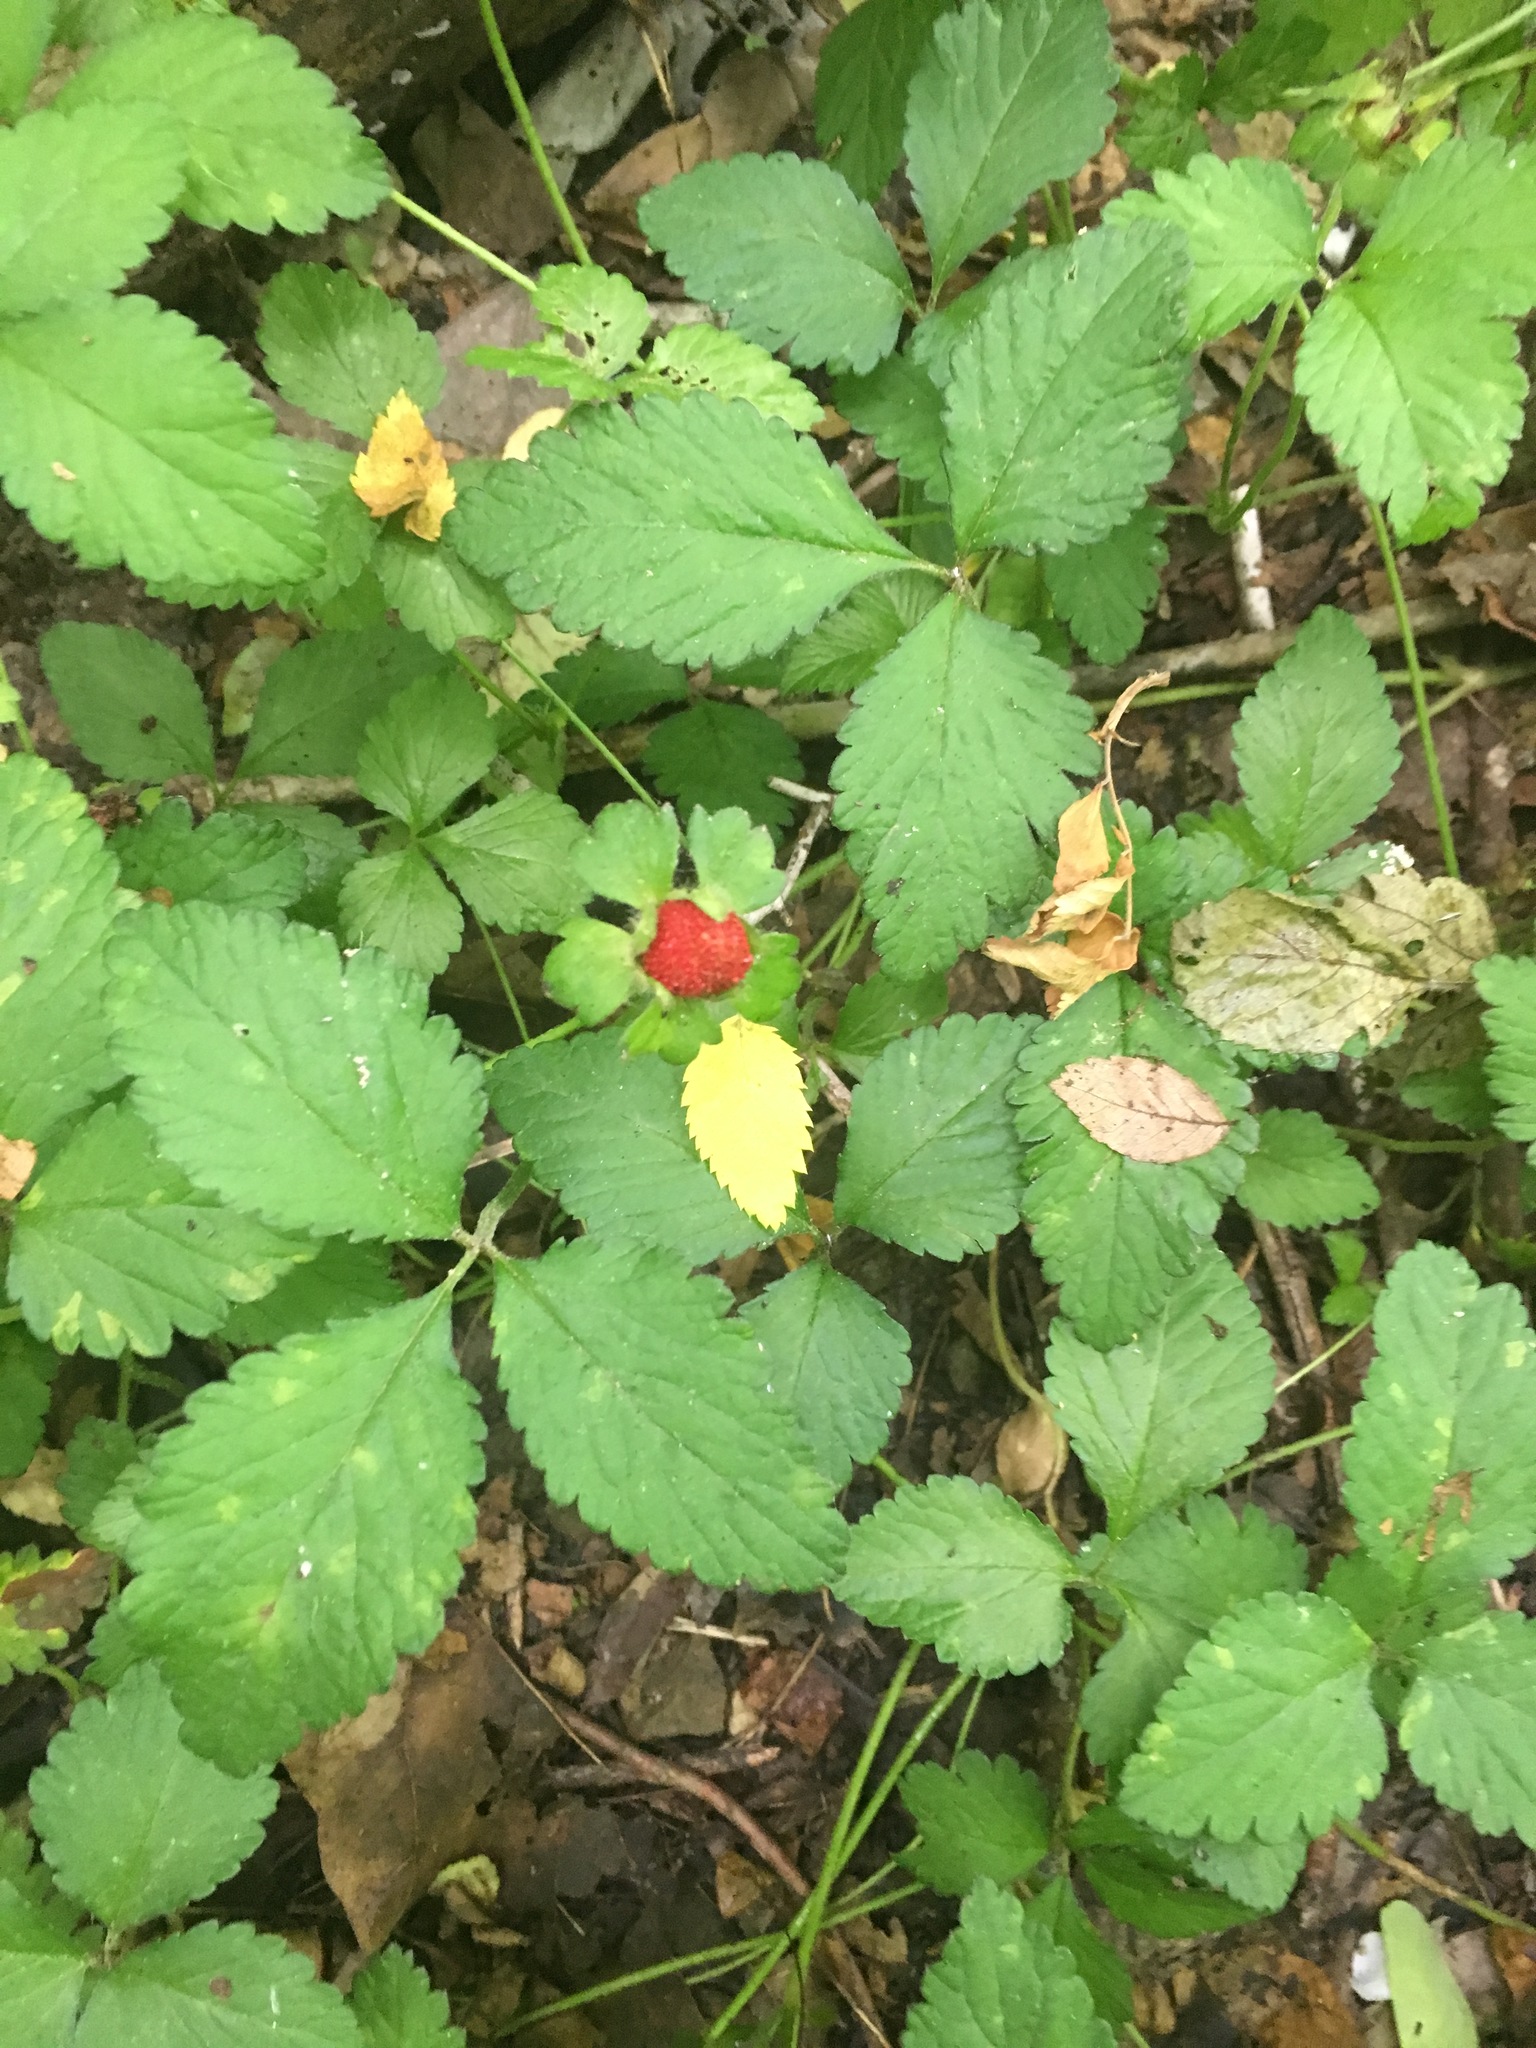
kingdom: Plantae
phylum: Tracheophyta
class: Magnoliopsida
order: Rosales
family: Rosaceae
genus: Potentilla
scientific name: Potentilla indica
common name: Yellow-flowered strawberry
